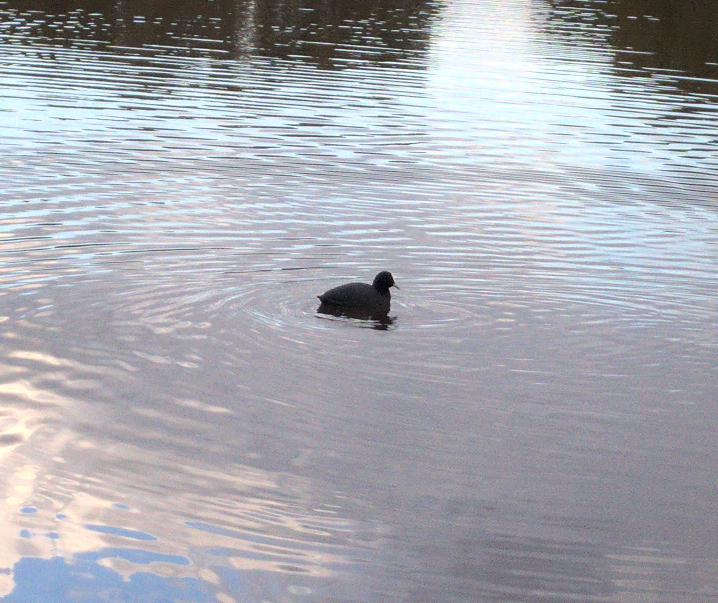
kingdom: Animalia
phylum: Chordata
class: Aves
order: Gruiformes
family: Rallidae
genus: Fulica
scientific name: Fulica atra
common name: Eurasian coot
